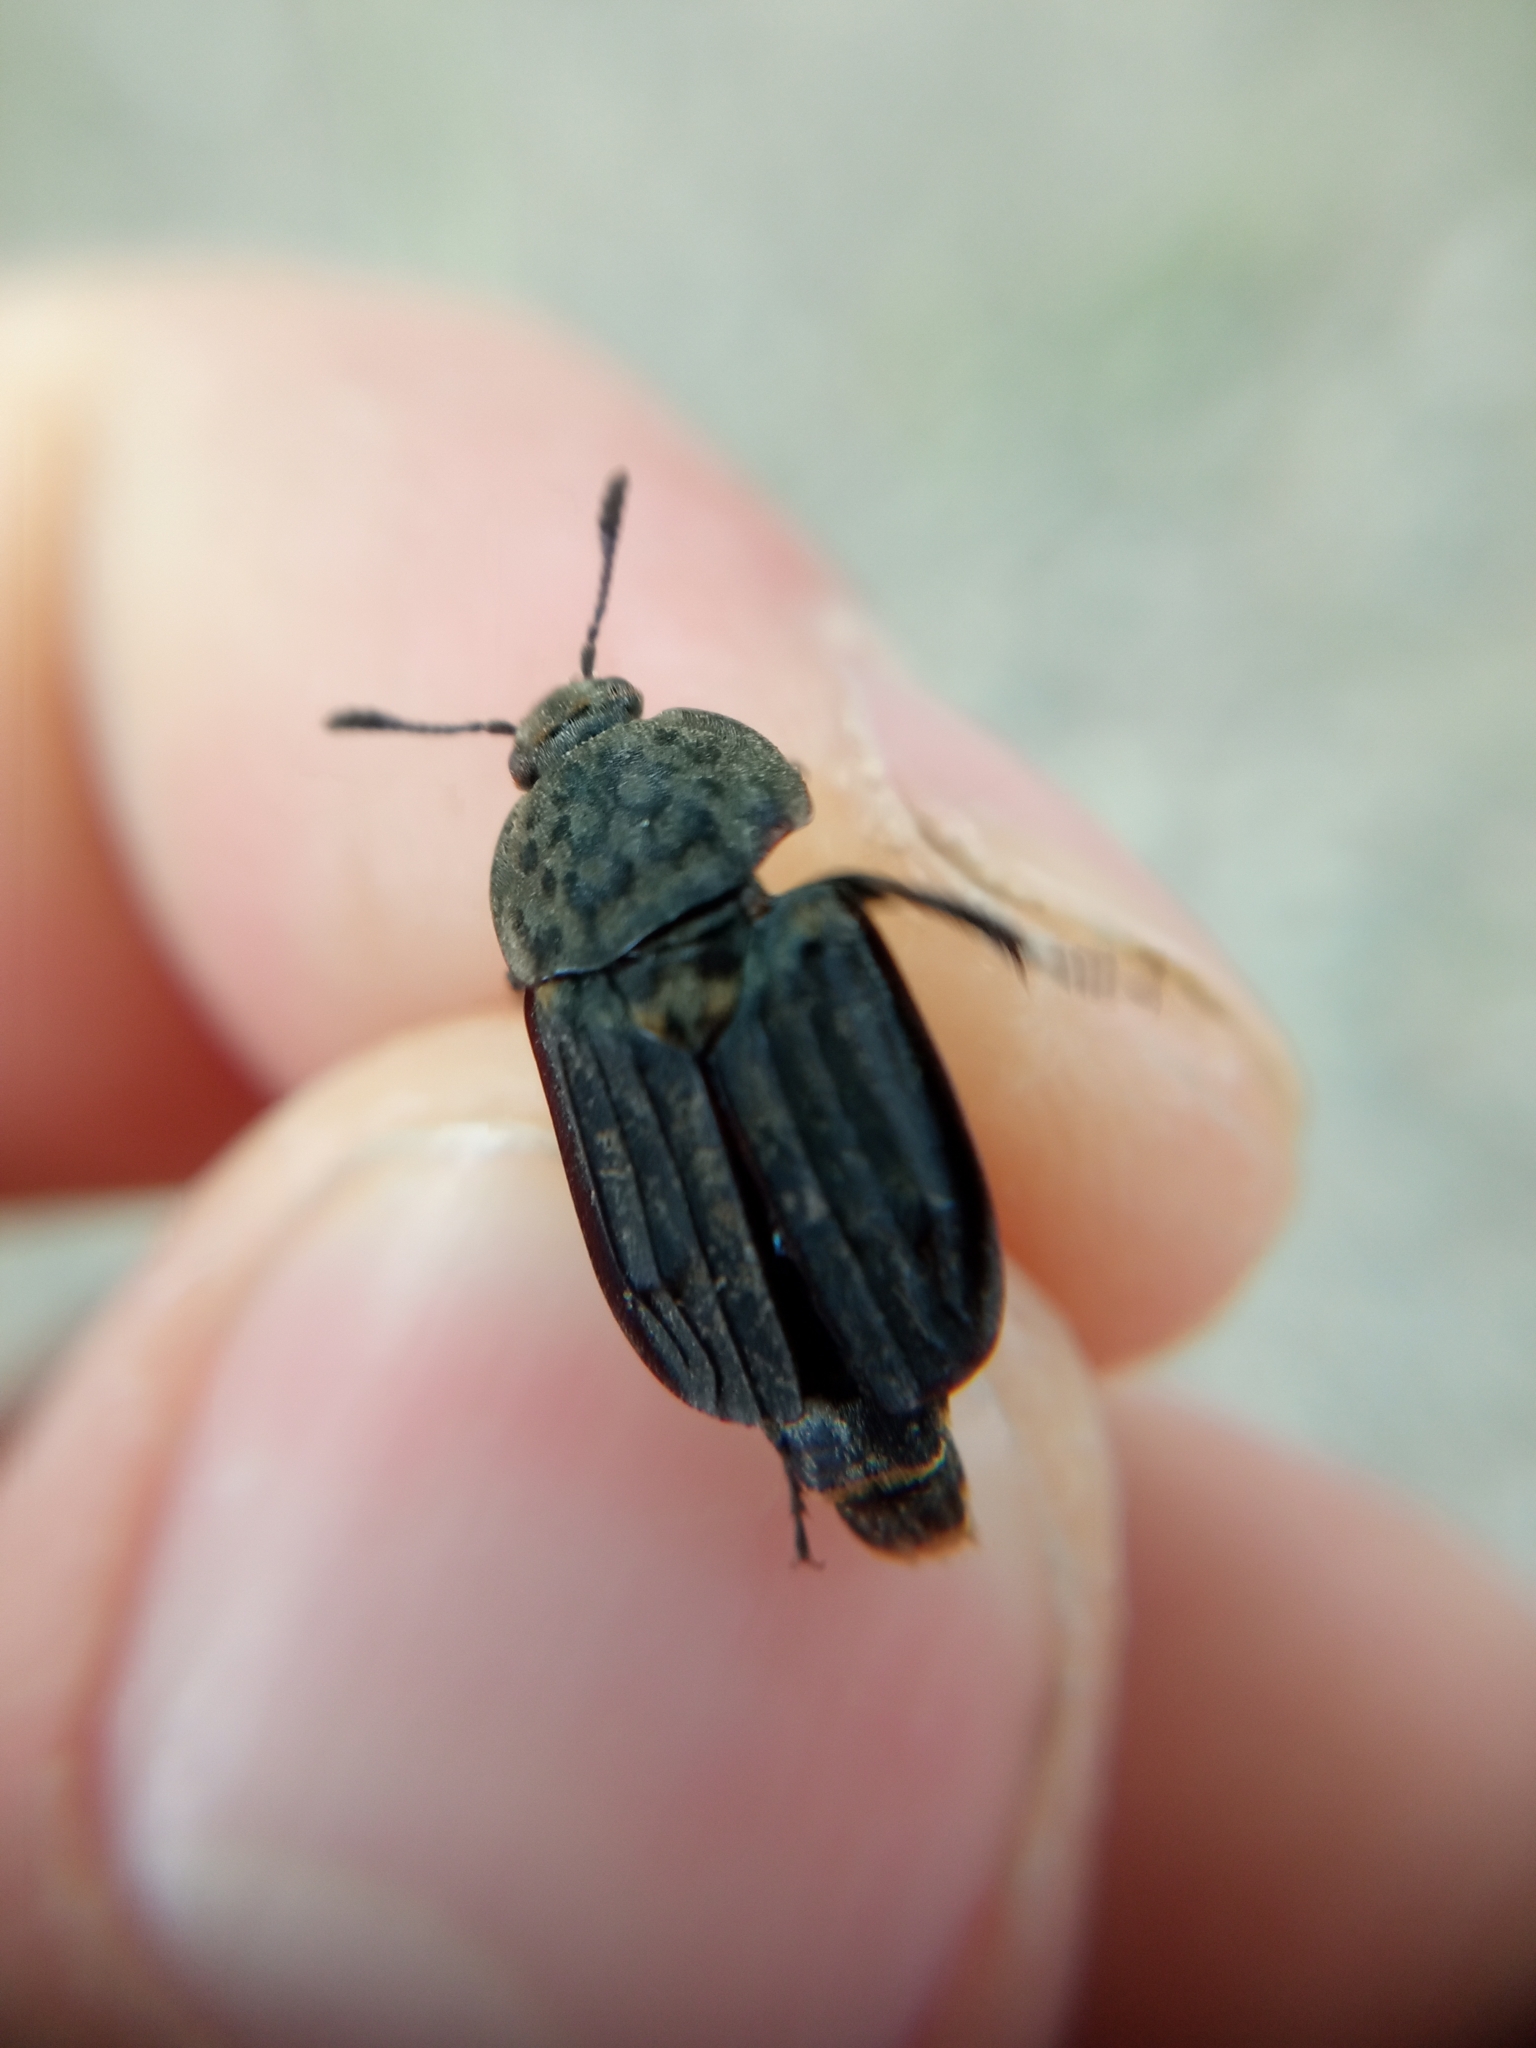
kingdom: Animalia
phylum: Arthropoda
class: Insecta
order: Coleoptera
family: Staphylinidae
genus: Thanatophilus
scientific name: Thanatophilus sinuatus
